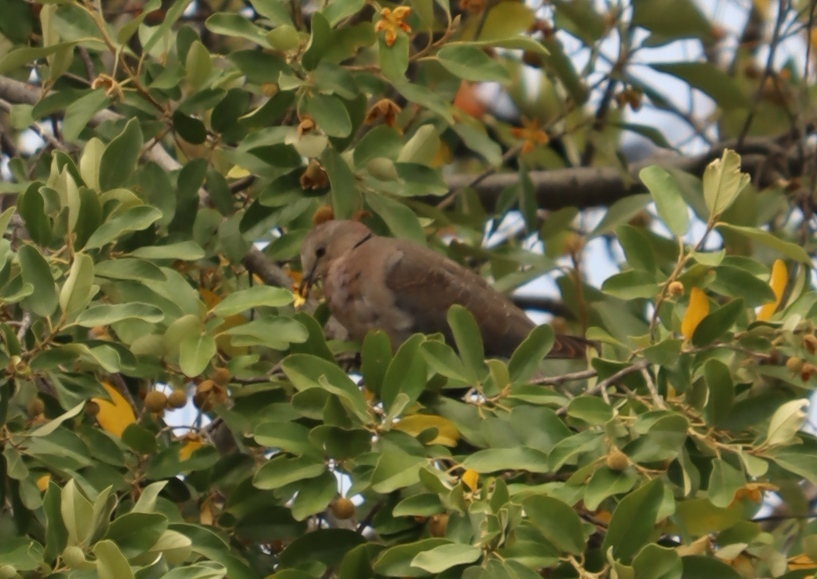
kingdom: Animalia
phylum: Chordata
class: Aves
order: Columbiformes
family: Columbidae
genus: Streptopelia
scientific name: Streptopelia capicola
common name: Ring-necked dove
